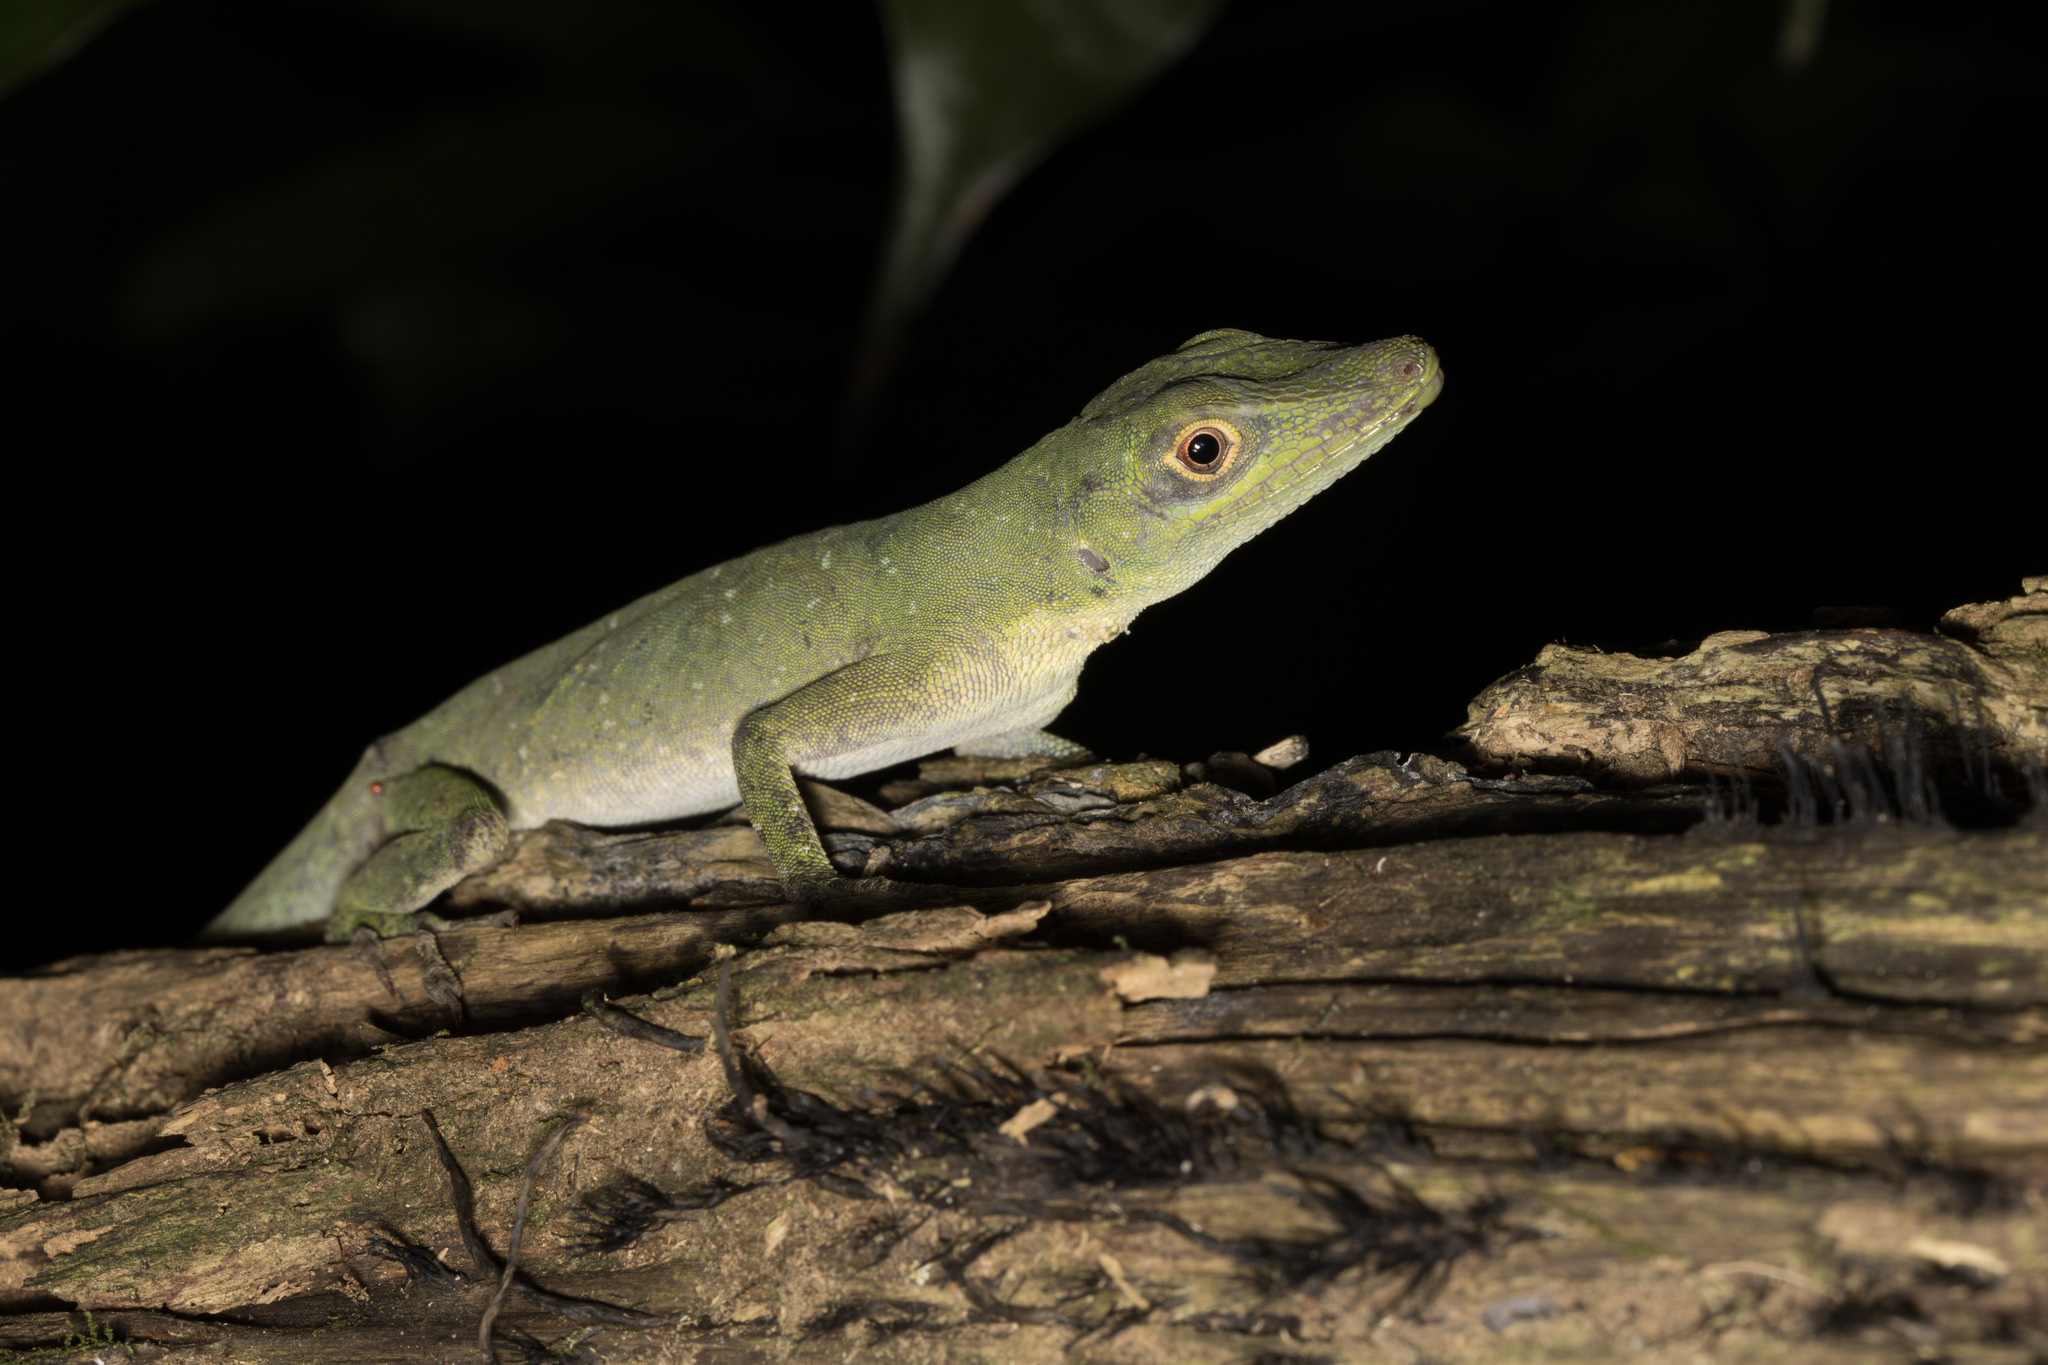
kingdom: Animalia
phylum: Chordata
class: Squamata
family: Dactyloidae
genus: Anolis
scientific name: Anolis punctatus
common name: Amazon green anole
